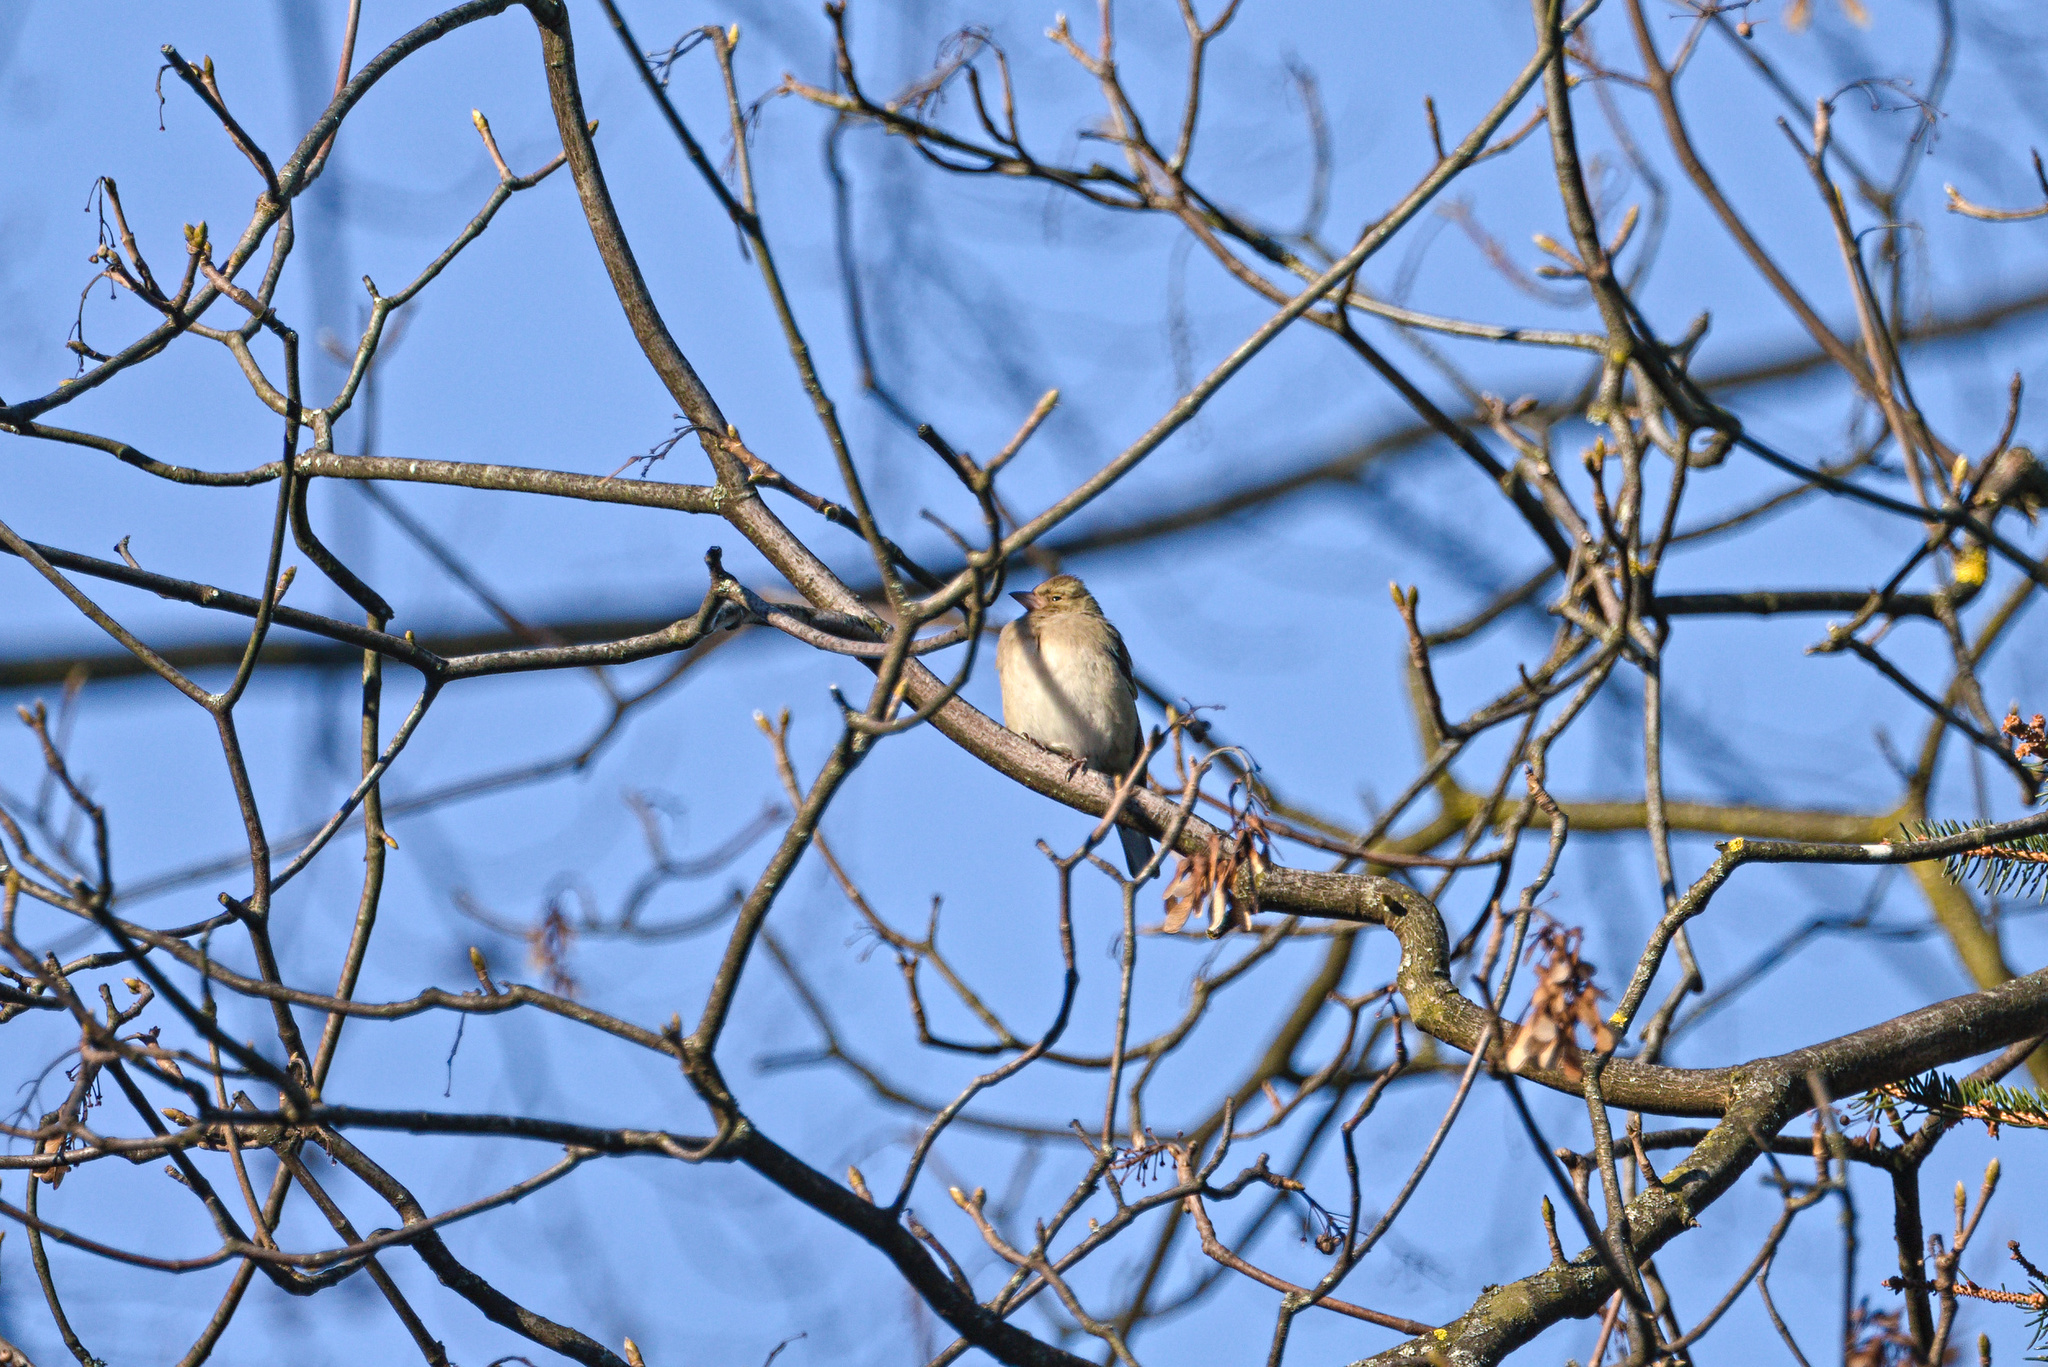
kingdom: Animalia
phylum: Chordata
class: Aves
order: Passeriformes
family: Fringillidae
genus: Fringilla
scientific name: Fringilla coelebs
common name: Common chaffinch
